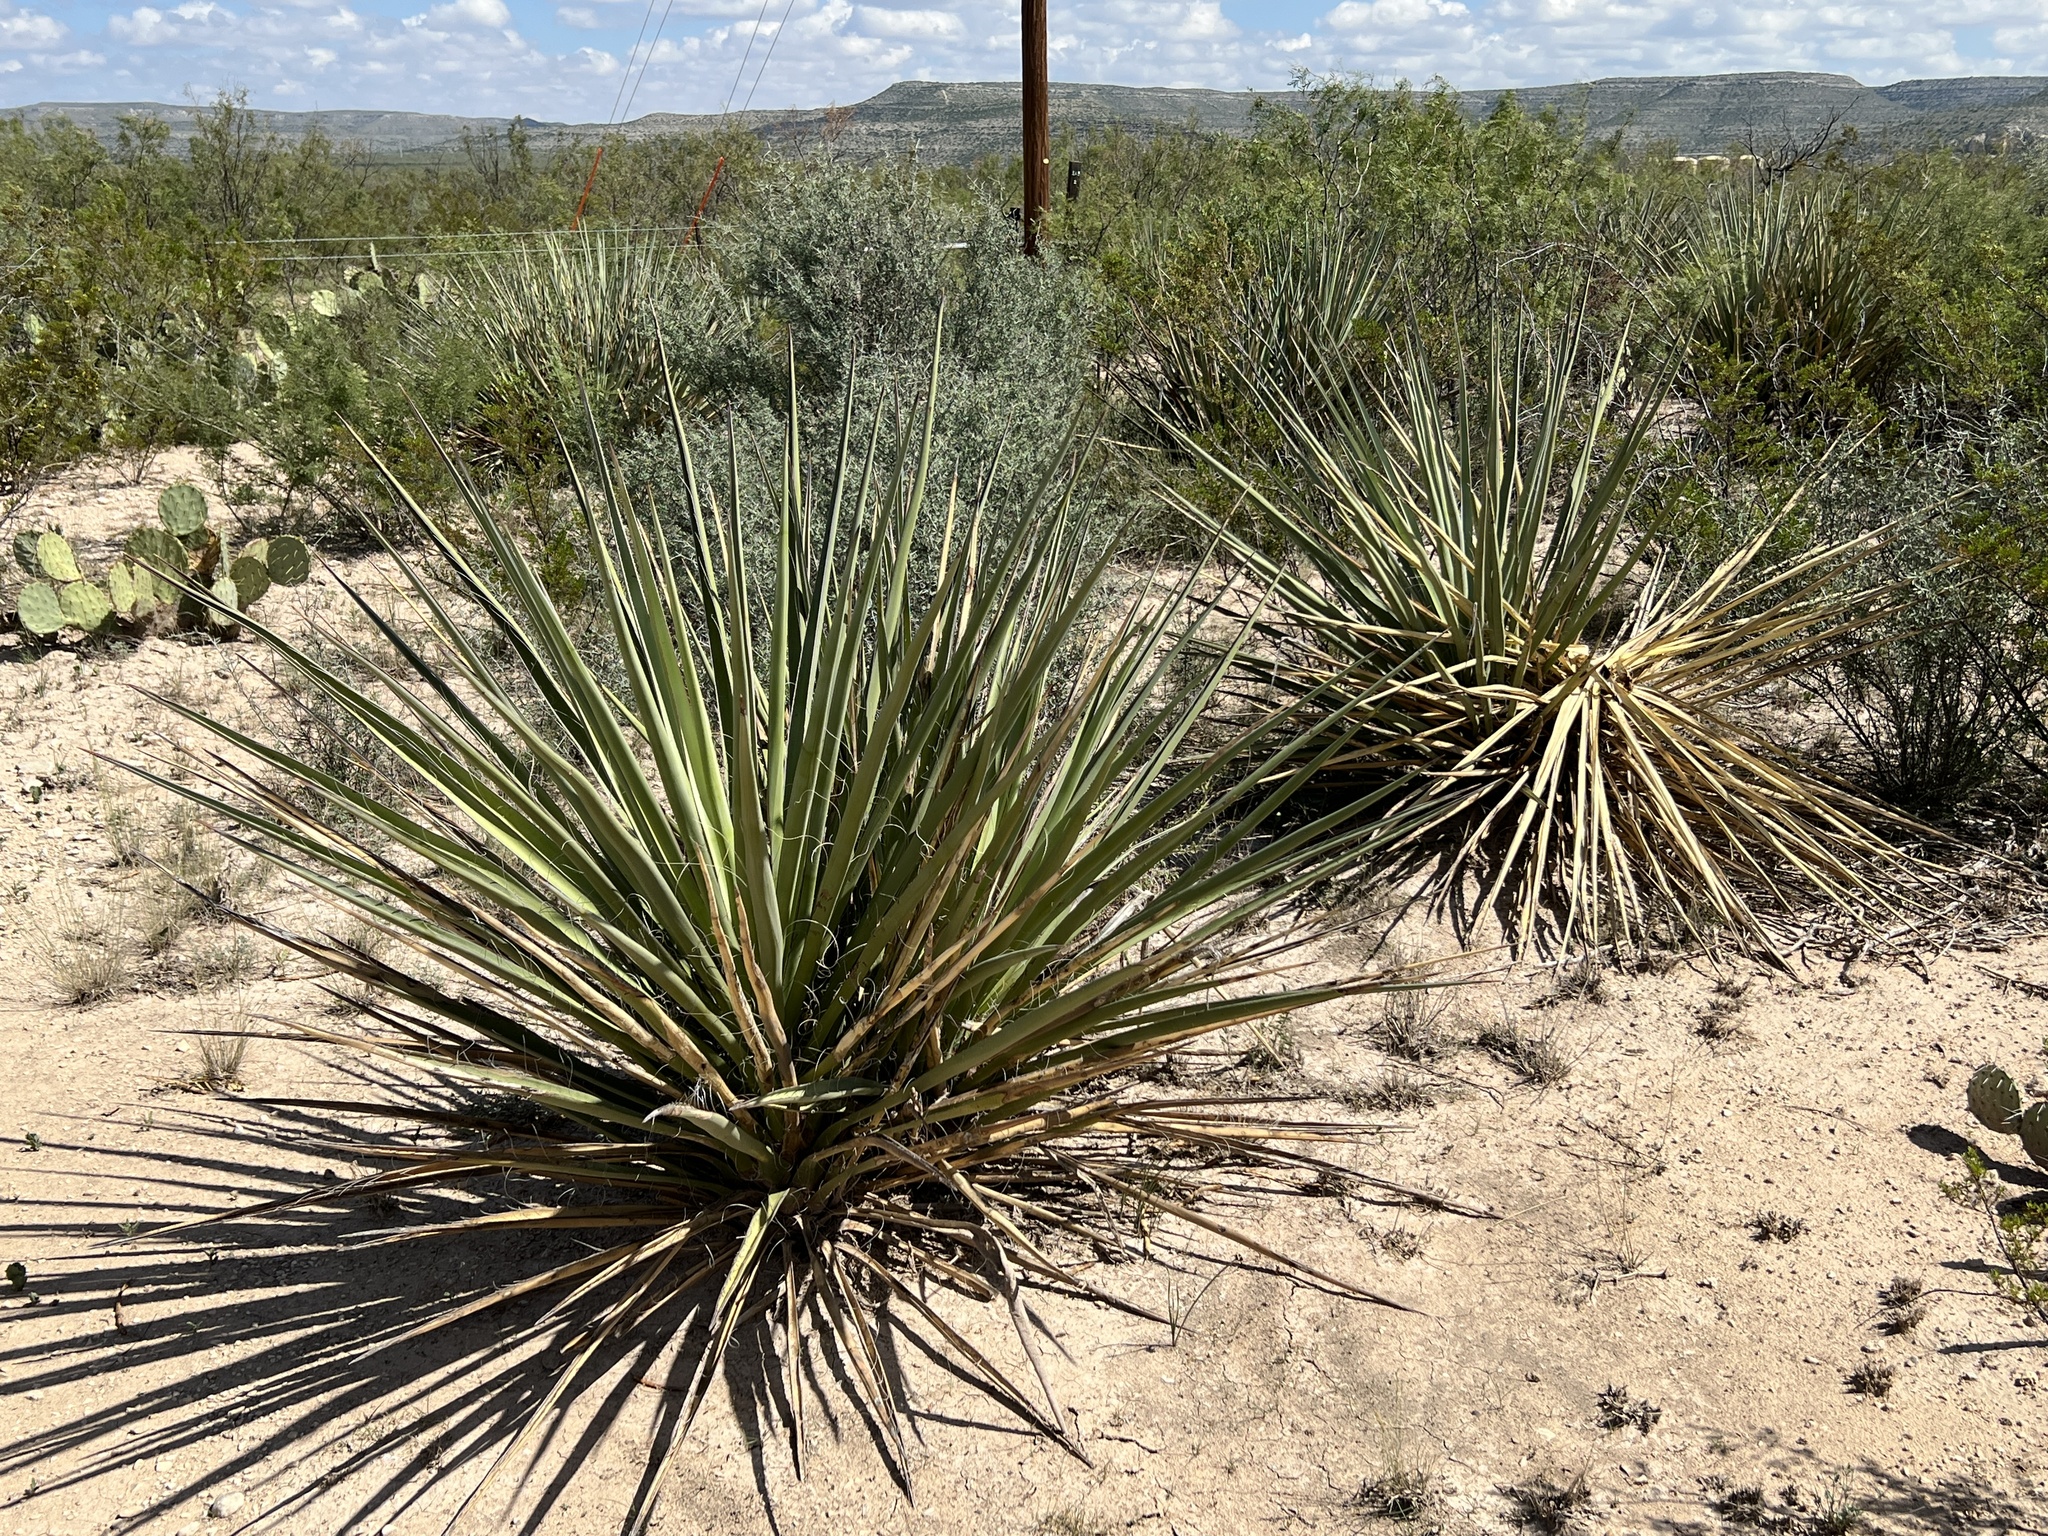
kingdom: Plantae
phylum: Tracheophyta
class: Liliopsida
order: Asparagales
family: Asparagaceae
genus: Yucca
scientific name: Yucca treculiana
